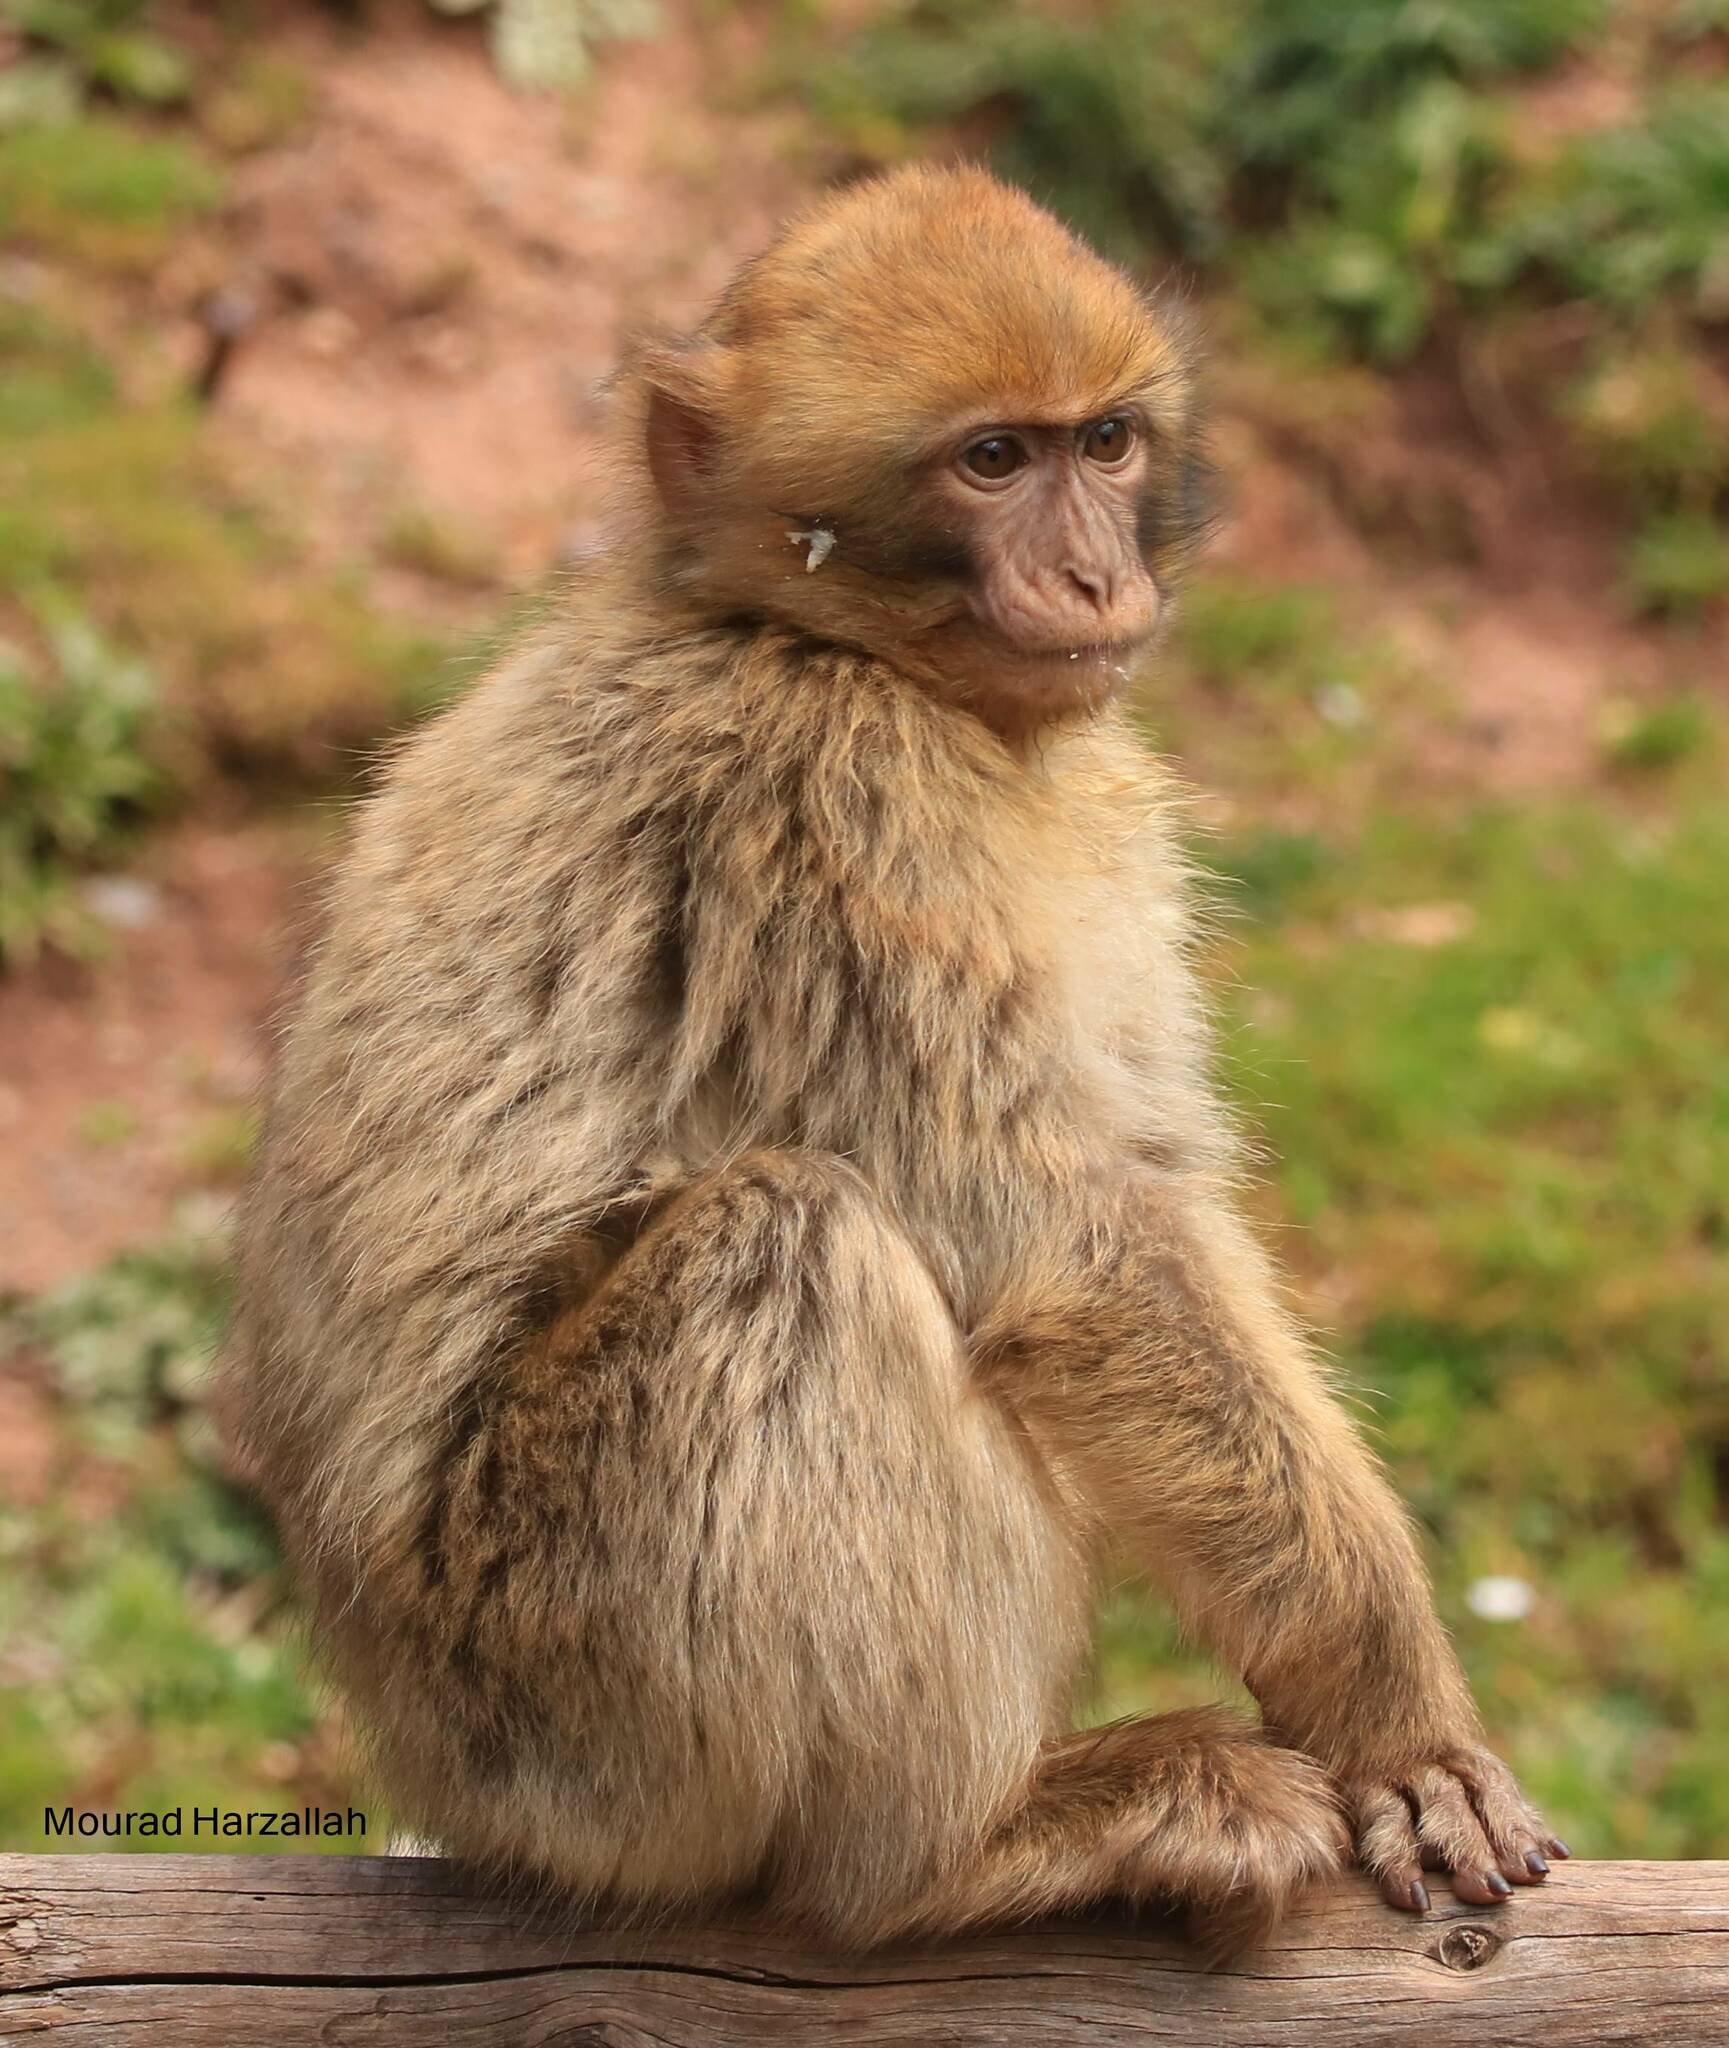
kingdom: Animalia
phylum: Chordata
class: Mammalia
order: Primates
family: Cercopithecidae
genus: Macaca
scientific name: Macaca sylvanus
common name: Barbary macaque
